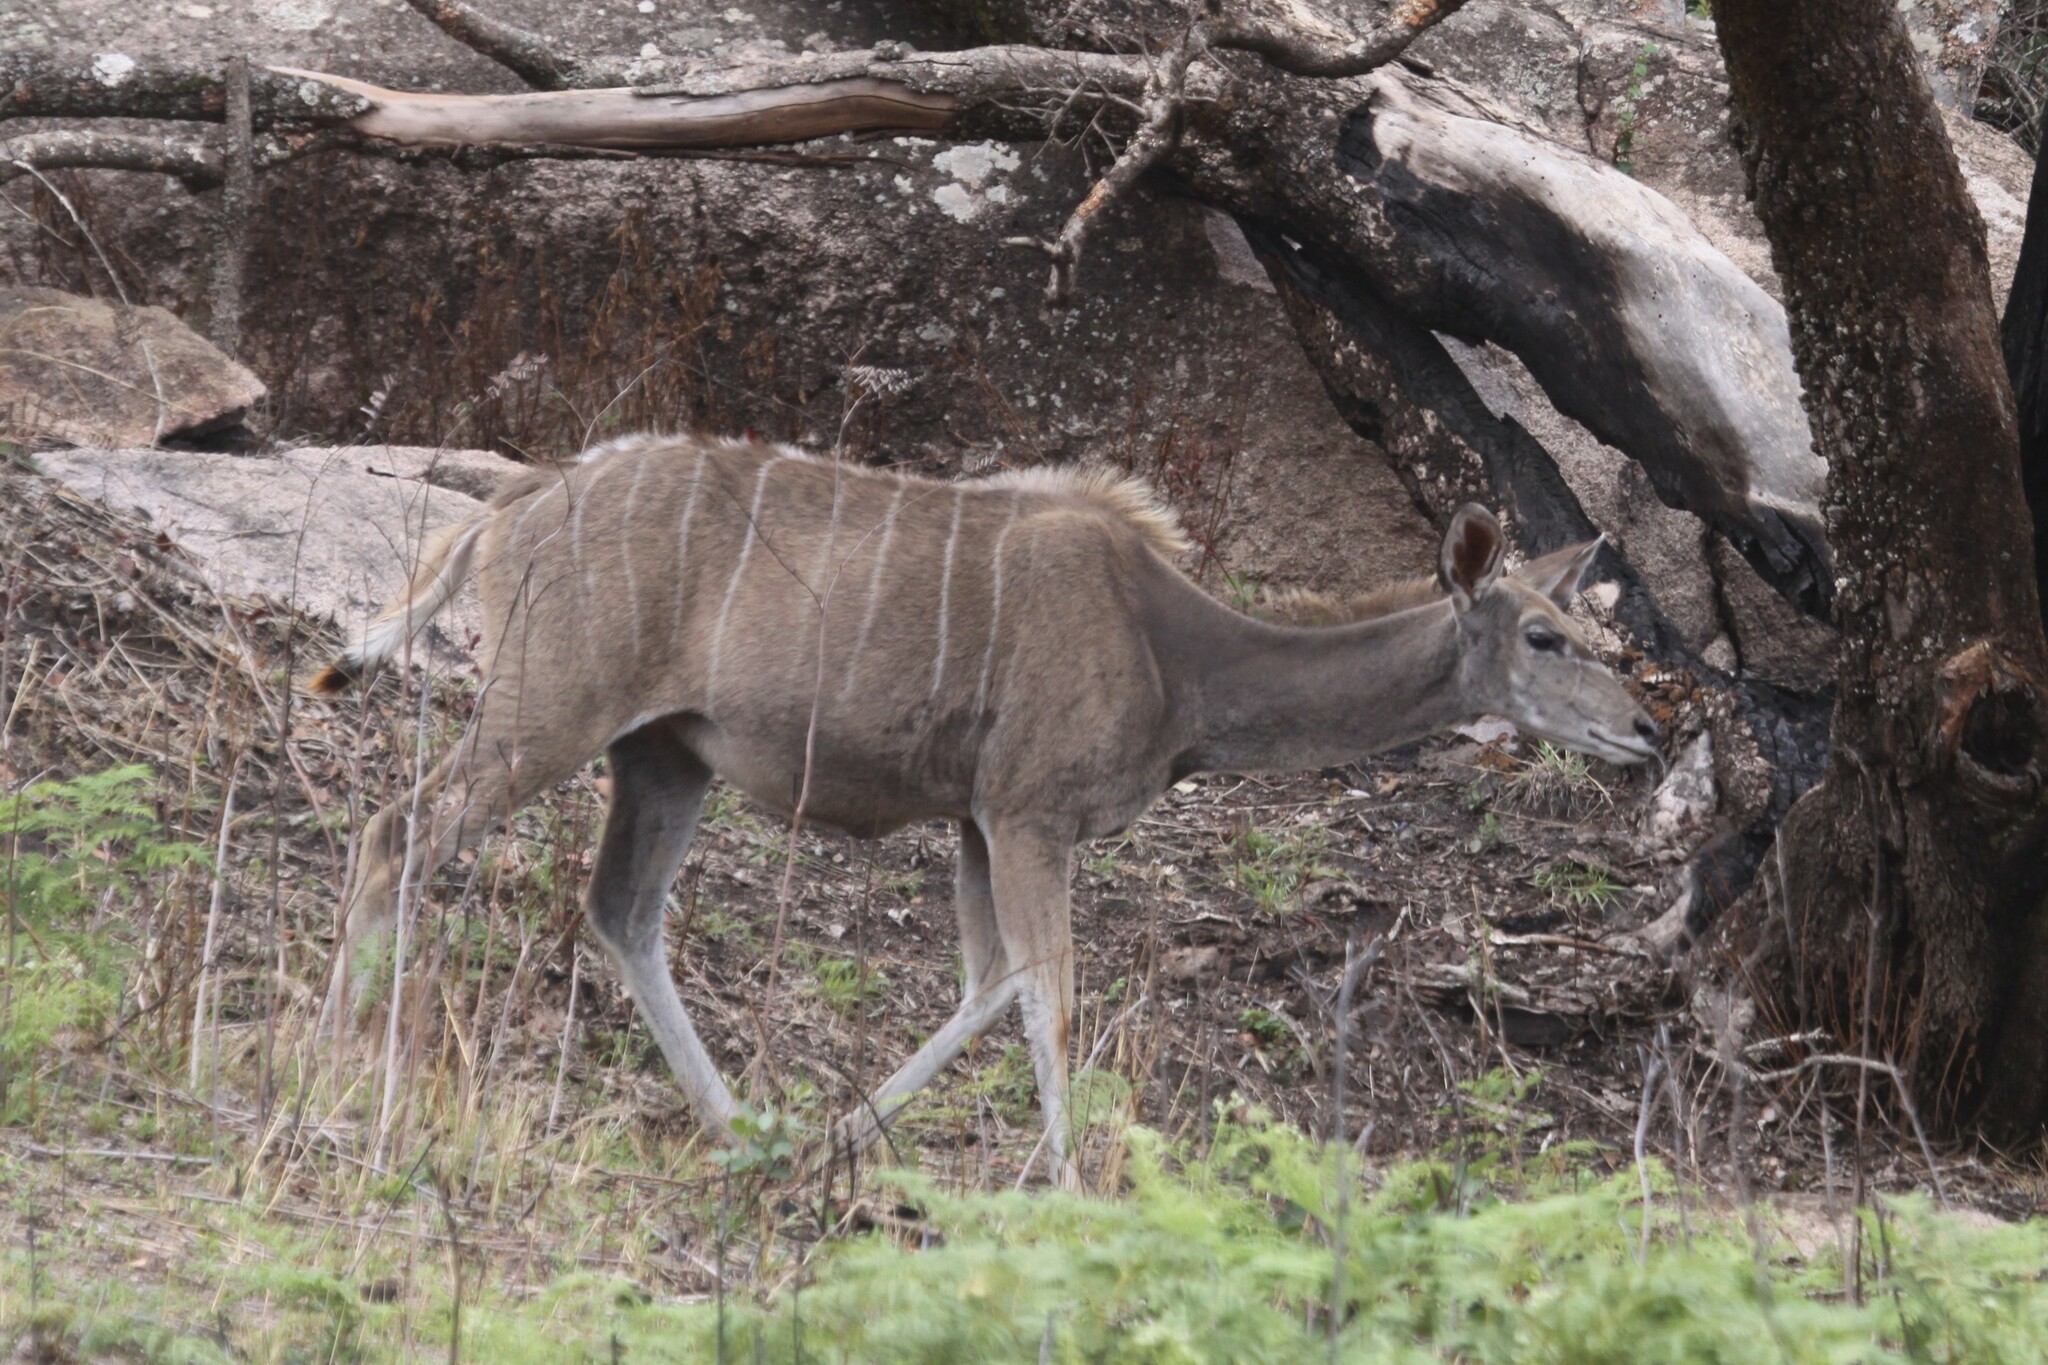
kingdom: Animalia
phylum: Chordata
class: Mammalia
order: Artiodactyla
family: Bovidae
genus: Tragelaphus
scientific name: Tragelaphus strepsiceros
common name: Greater kudu
